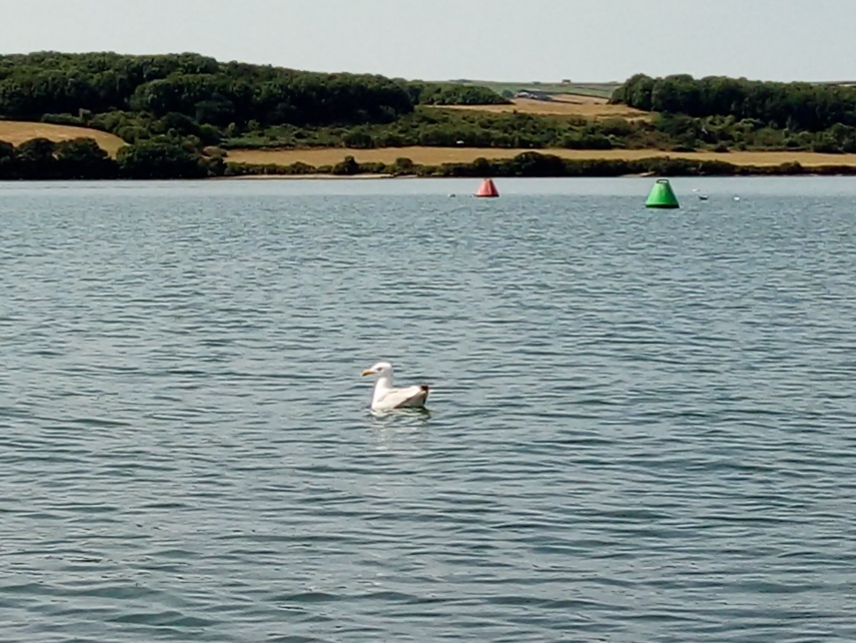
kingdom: Animalia
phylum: Chordata
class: Aves
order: Charadriiformes
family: Laridae
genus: Larus
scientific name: Larus argentatus
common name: Herring gull
